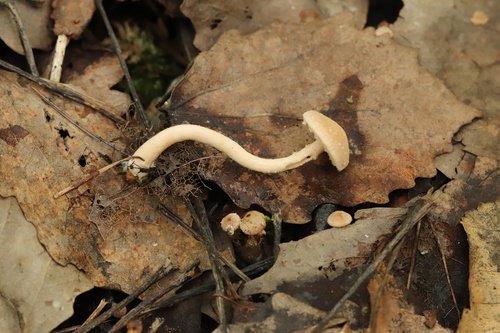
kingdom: Fungi
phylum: Basidiomycota
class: Agaricomycetes
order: Agaricales
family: Tubariaceae
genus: Tubaria
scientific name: Tubaria furfuracea
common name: Scurfy twiglet
